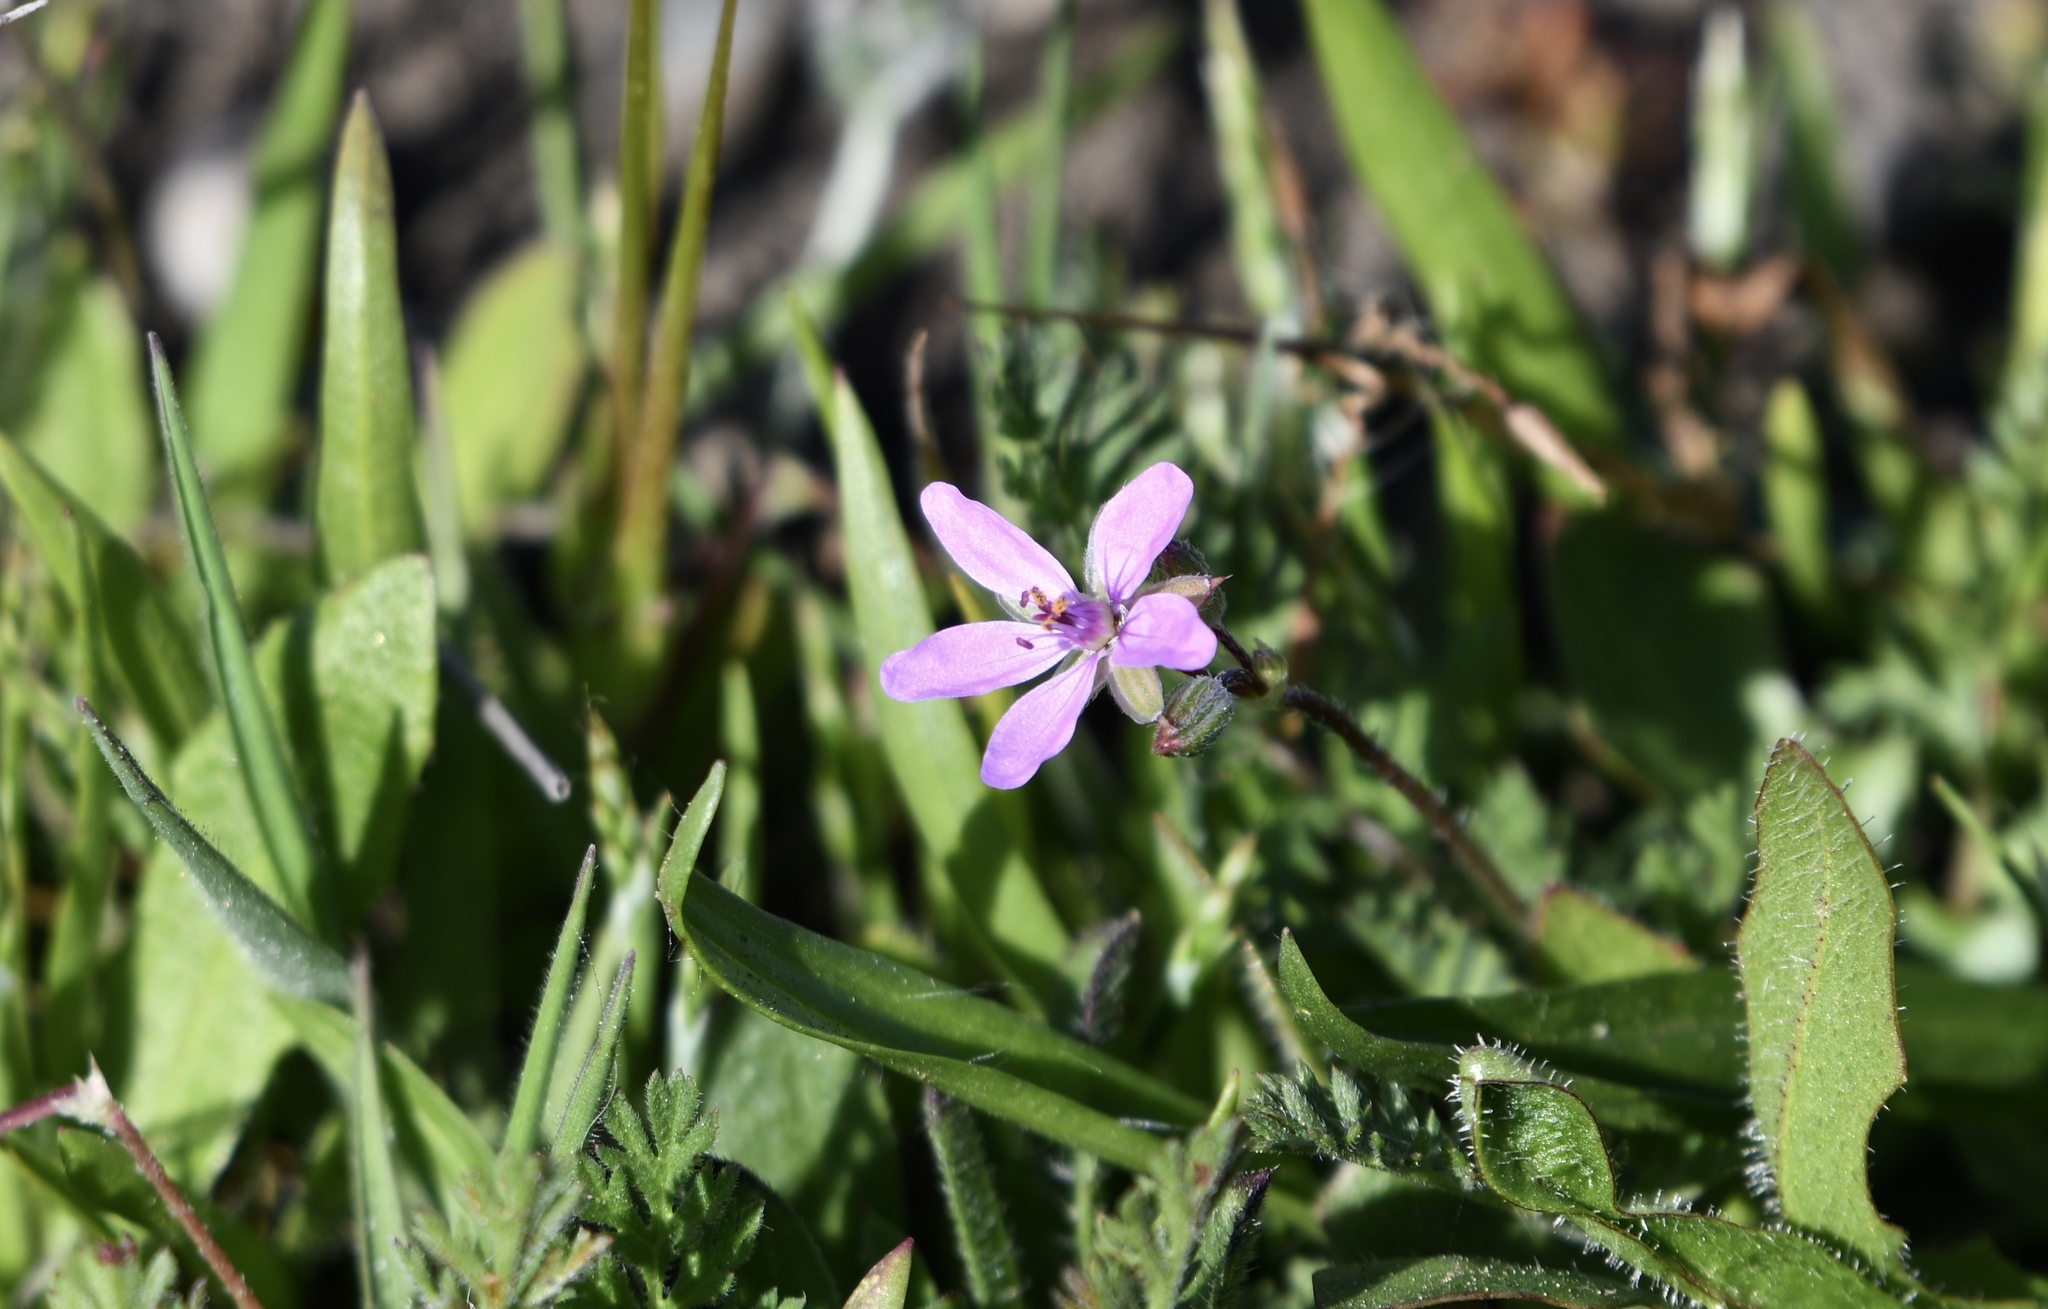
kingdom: Plantae
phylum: Tracheophyta
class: Magnoliopsida
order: Geraniales
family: Geraniaceae
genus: Erodium
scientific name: Erodium cicutarium
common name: Common stork's-bill
